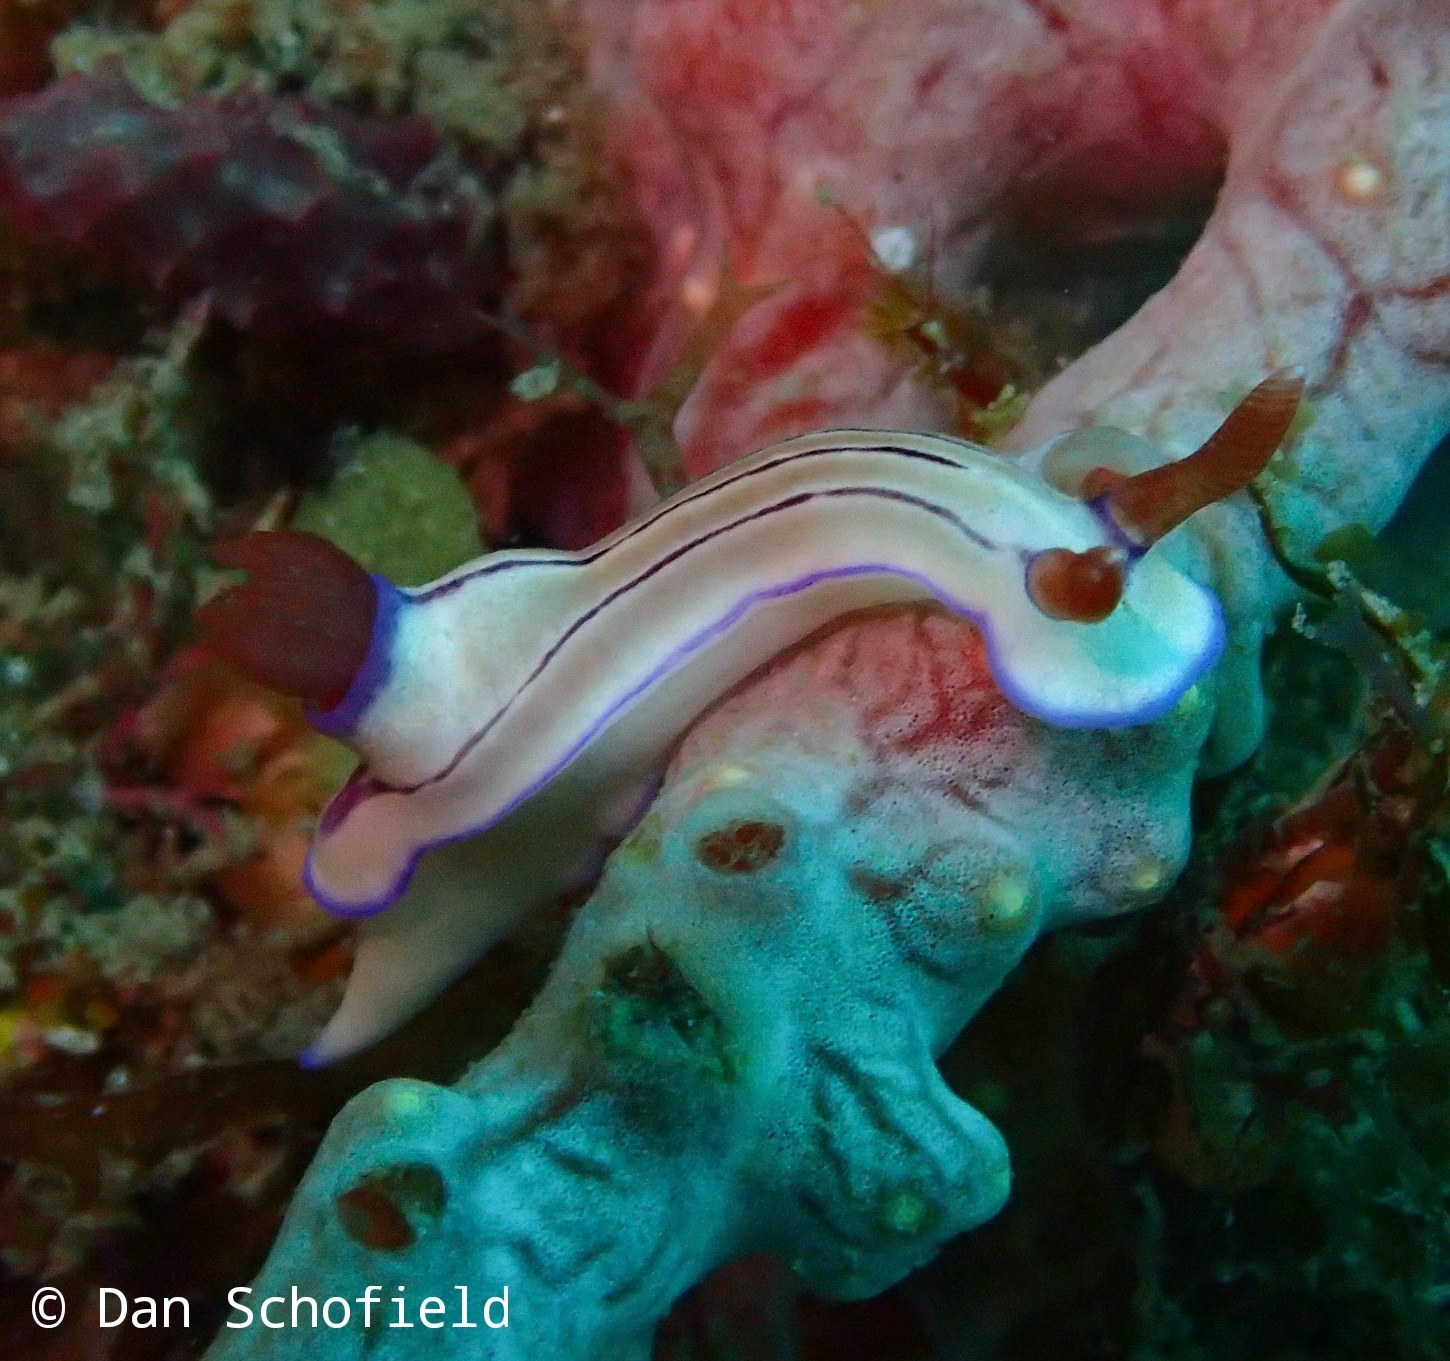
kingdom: Animalia
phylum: Mollusca
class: Gastropoda
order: Nudibranchia
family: Chromodorididae
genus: Hypselodoris
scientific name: Hypselodoris emma
